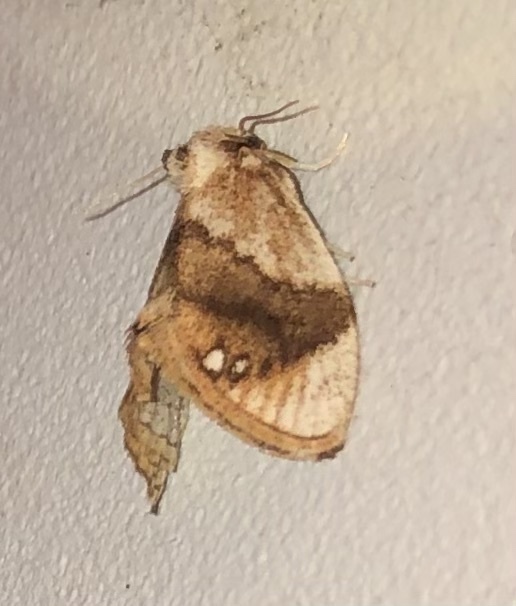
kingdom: Animalia
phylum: Arthropoda
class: Insecta
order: Lepidoptera
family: Limacodidae
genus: Packardia
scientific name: Packardia geminata
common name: Jeweled tailed slug moth
